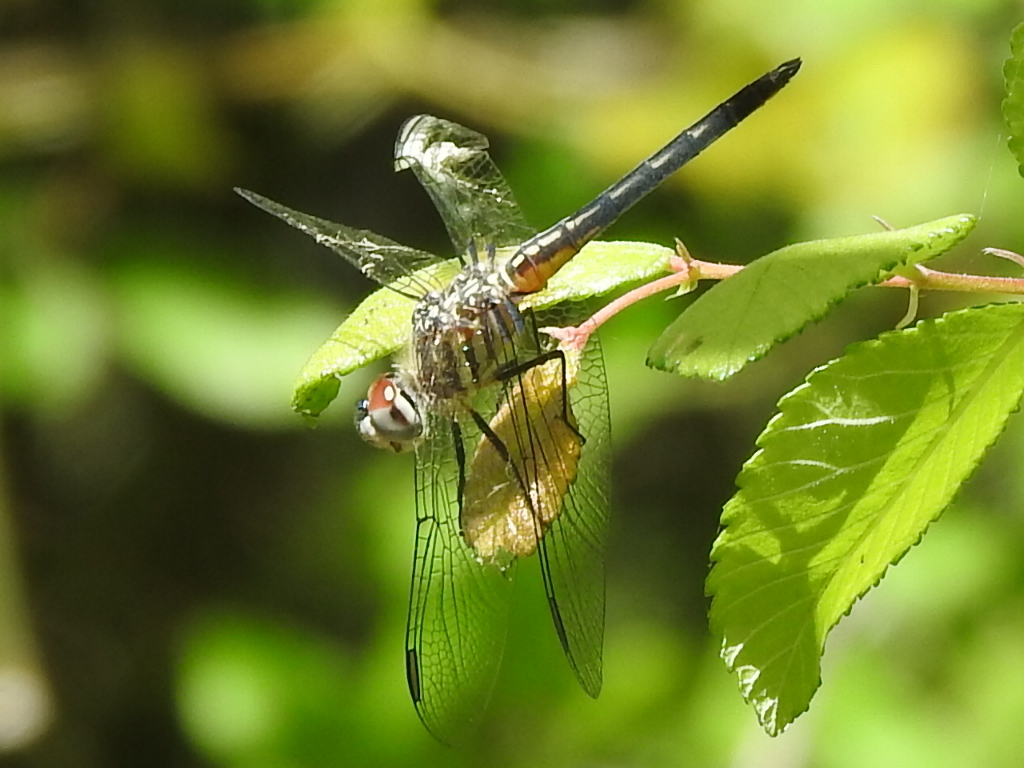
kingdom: Animalia
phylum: Arthropoda
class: Insecta
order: Odonata
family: Libellulidae
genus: Pachydiplax
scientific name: Pachydiplax longipennis
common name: Blue dasher
